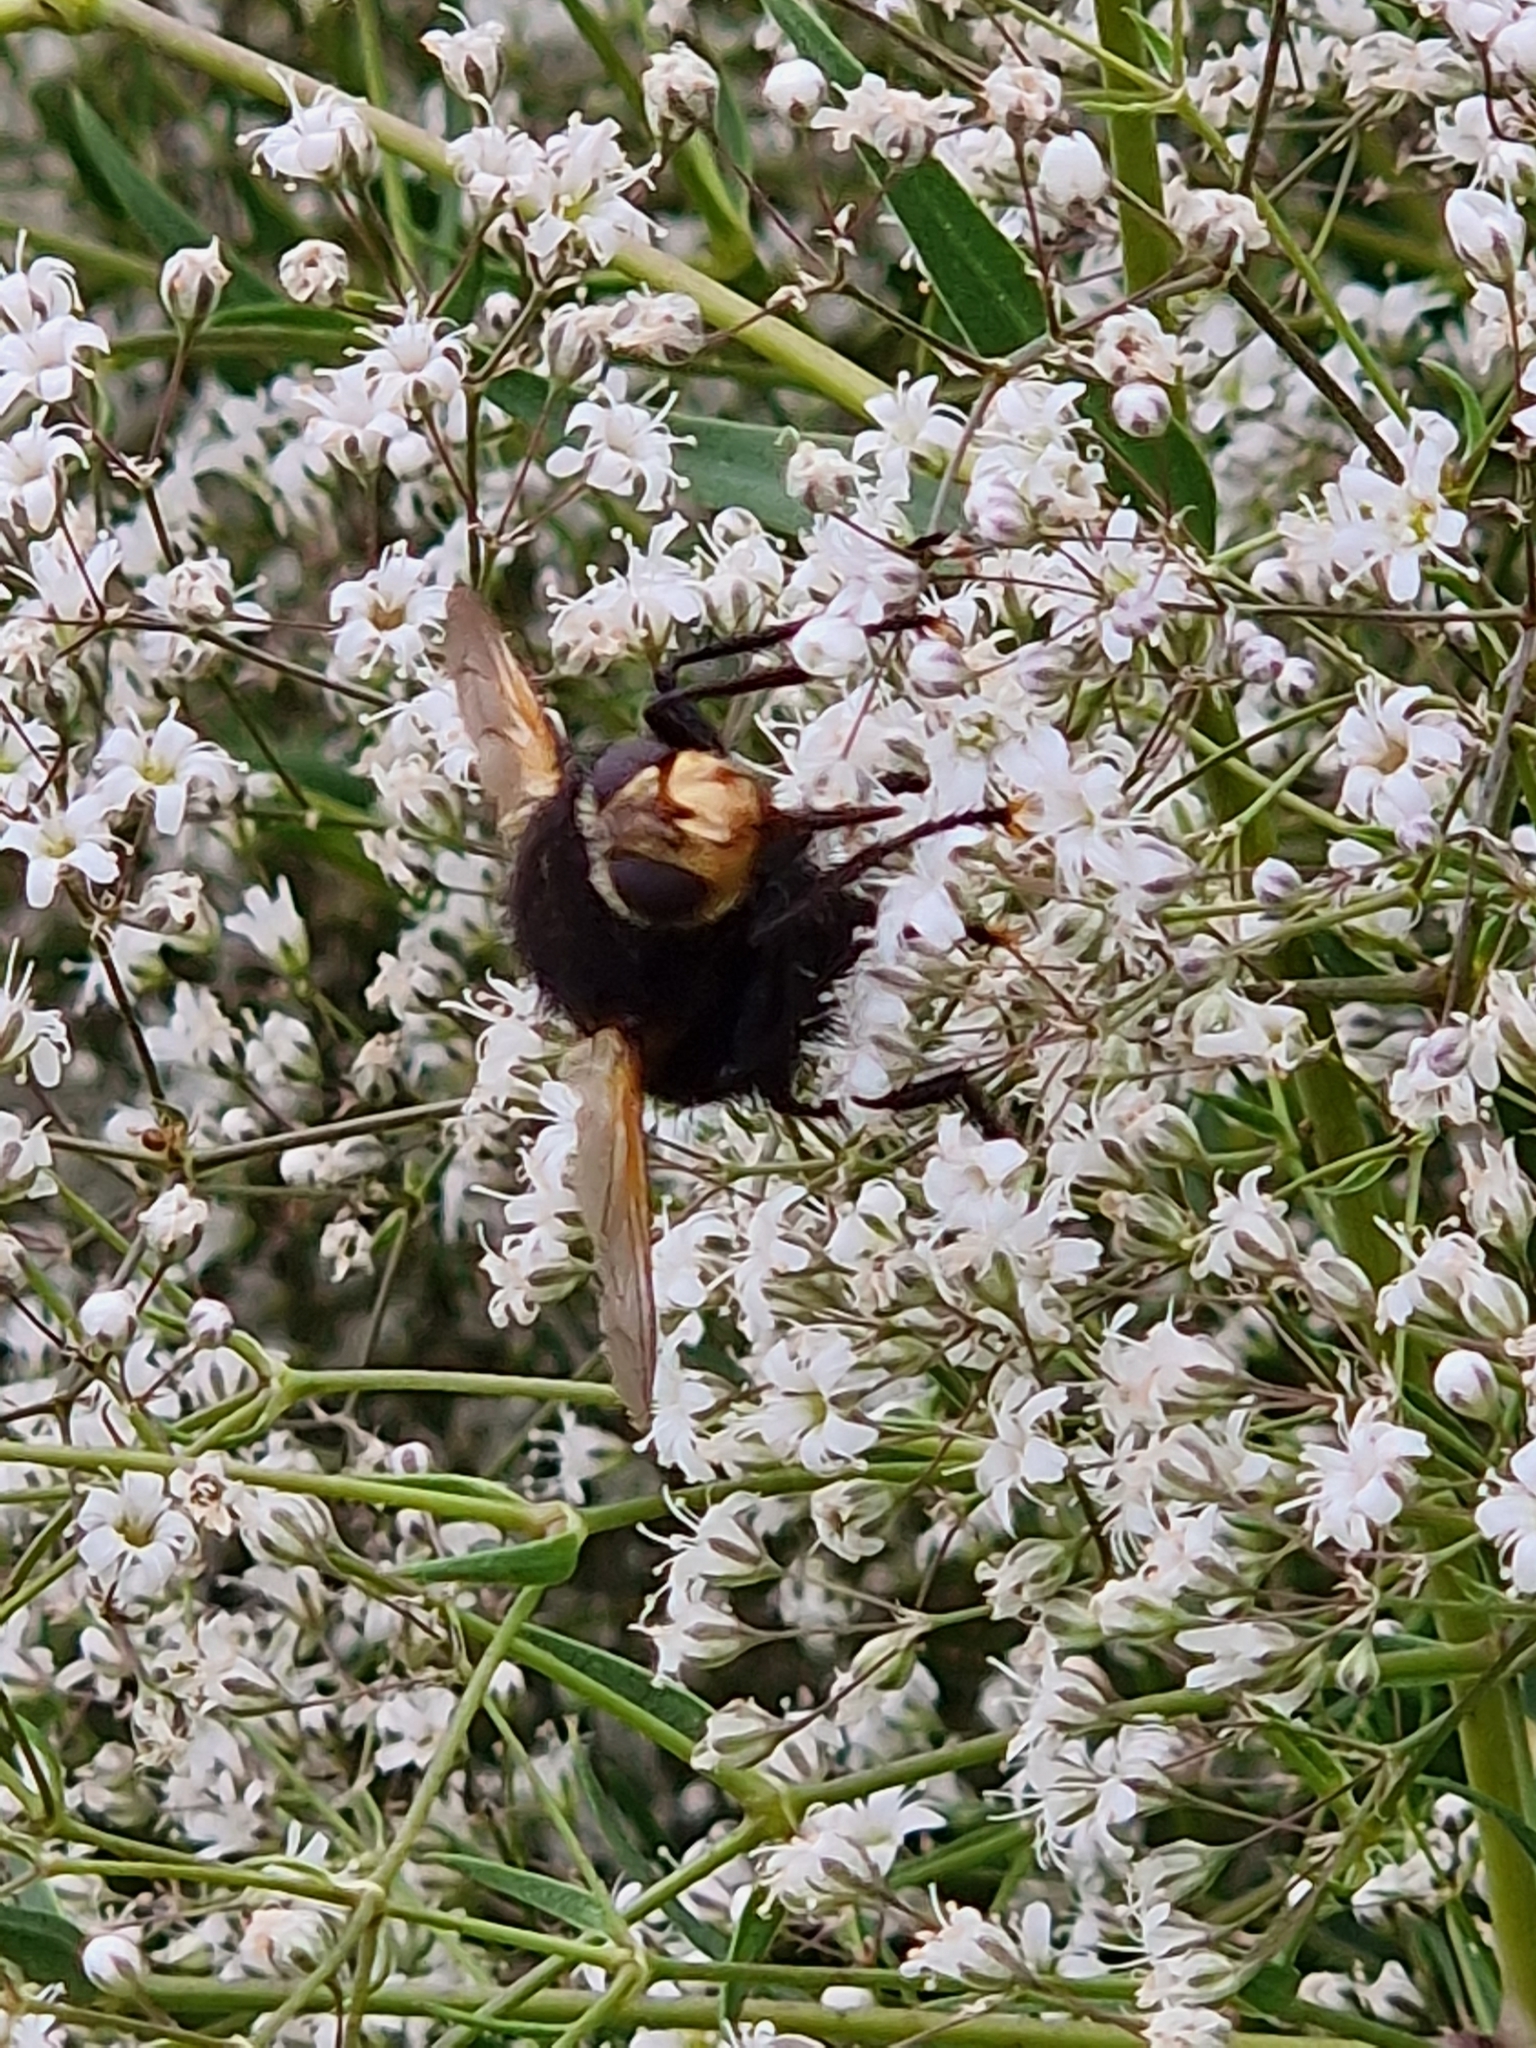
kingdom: Animalia
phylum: Arthropoda
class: Insecta
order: Diptera
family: Tachinidae
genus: Tachina
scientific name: Tachina grossa
